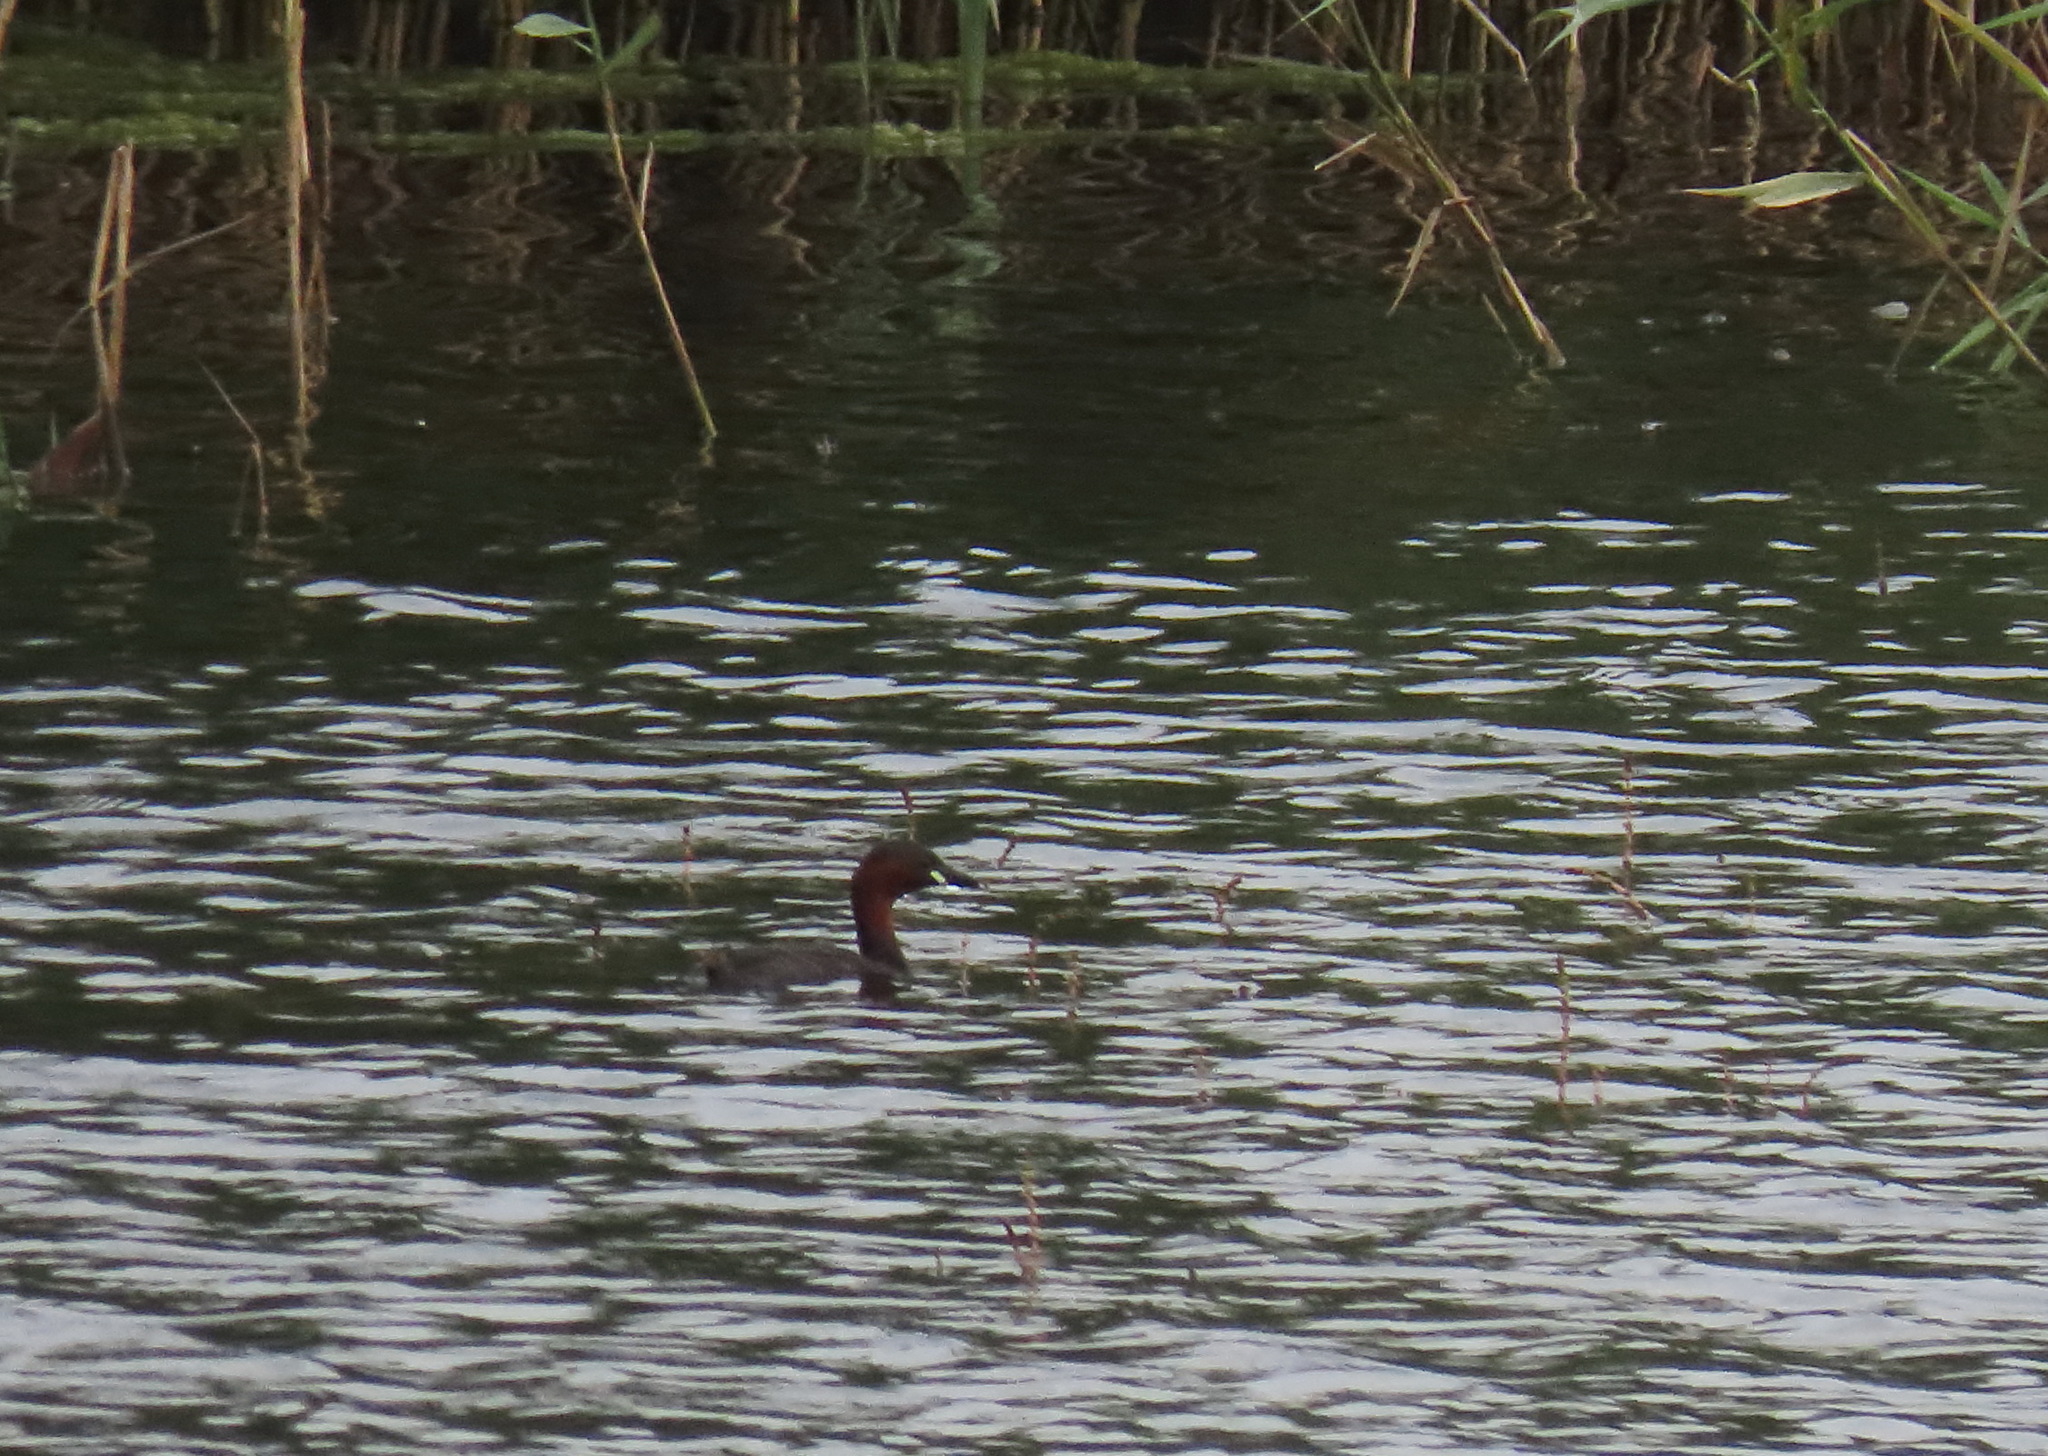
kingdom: Animalia
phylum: Chordata
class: Aves
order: Podicipediformes
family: Podicipedidae
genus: Tachybaptus
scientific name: Tachybaptus ruficollis
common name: Little grebe
